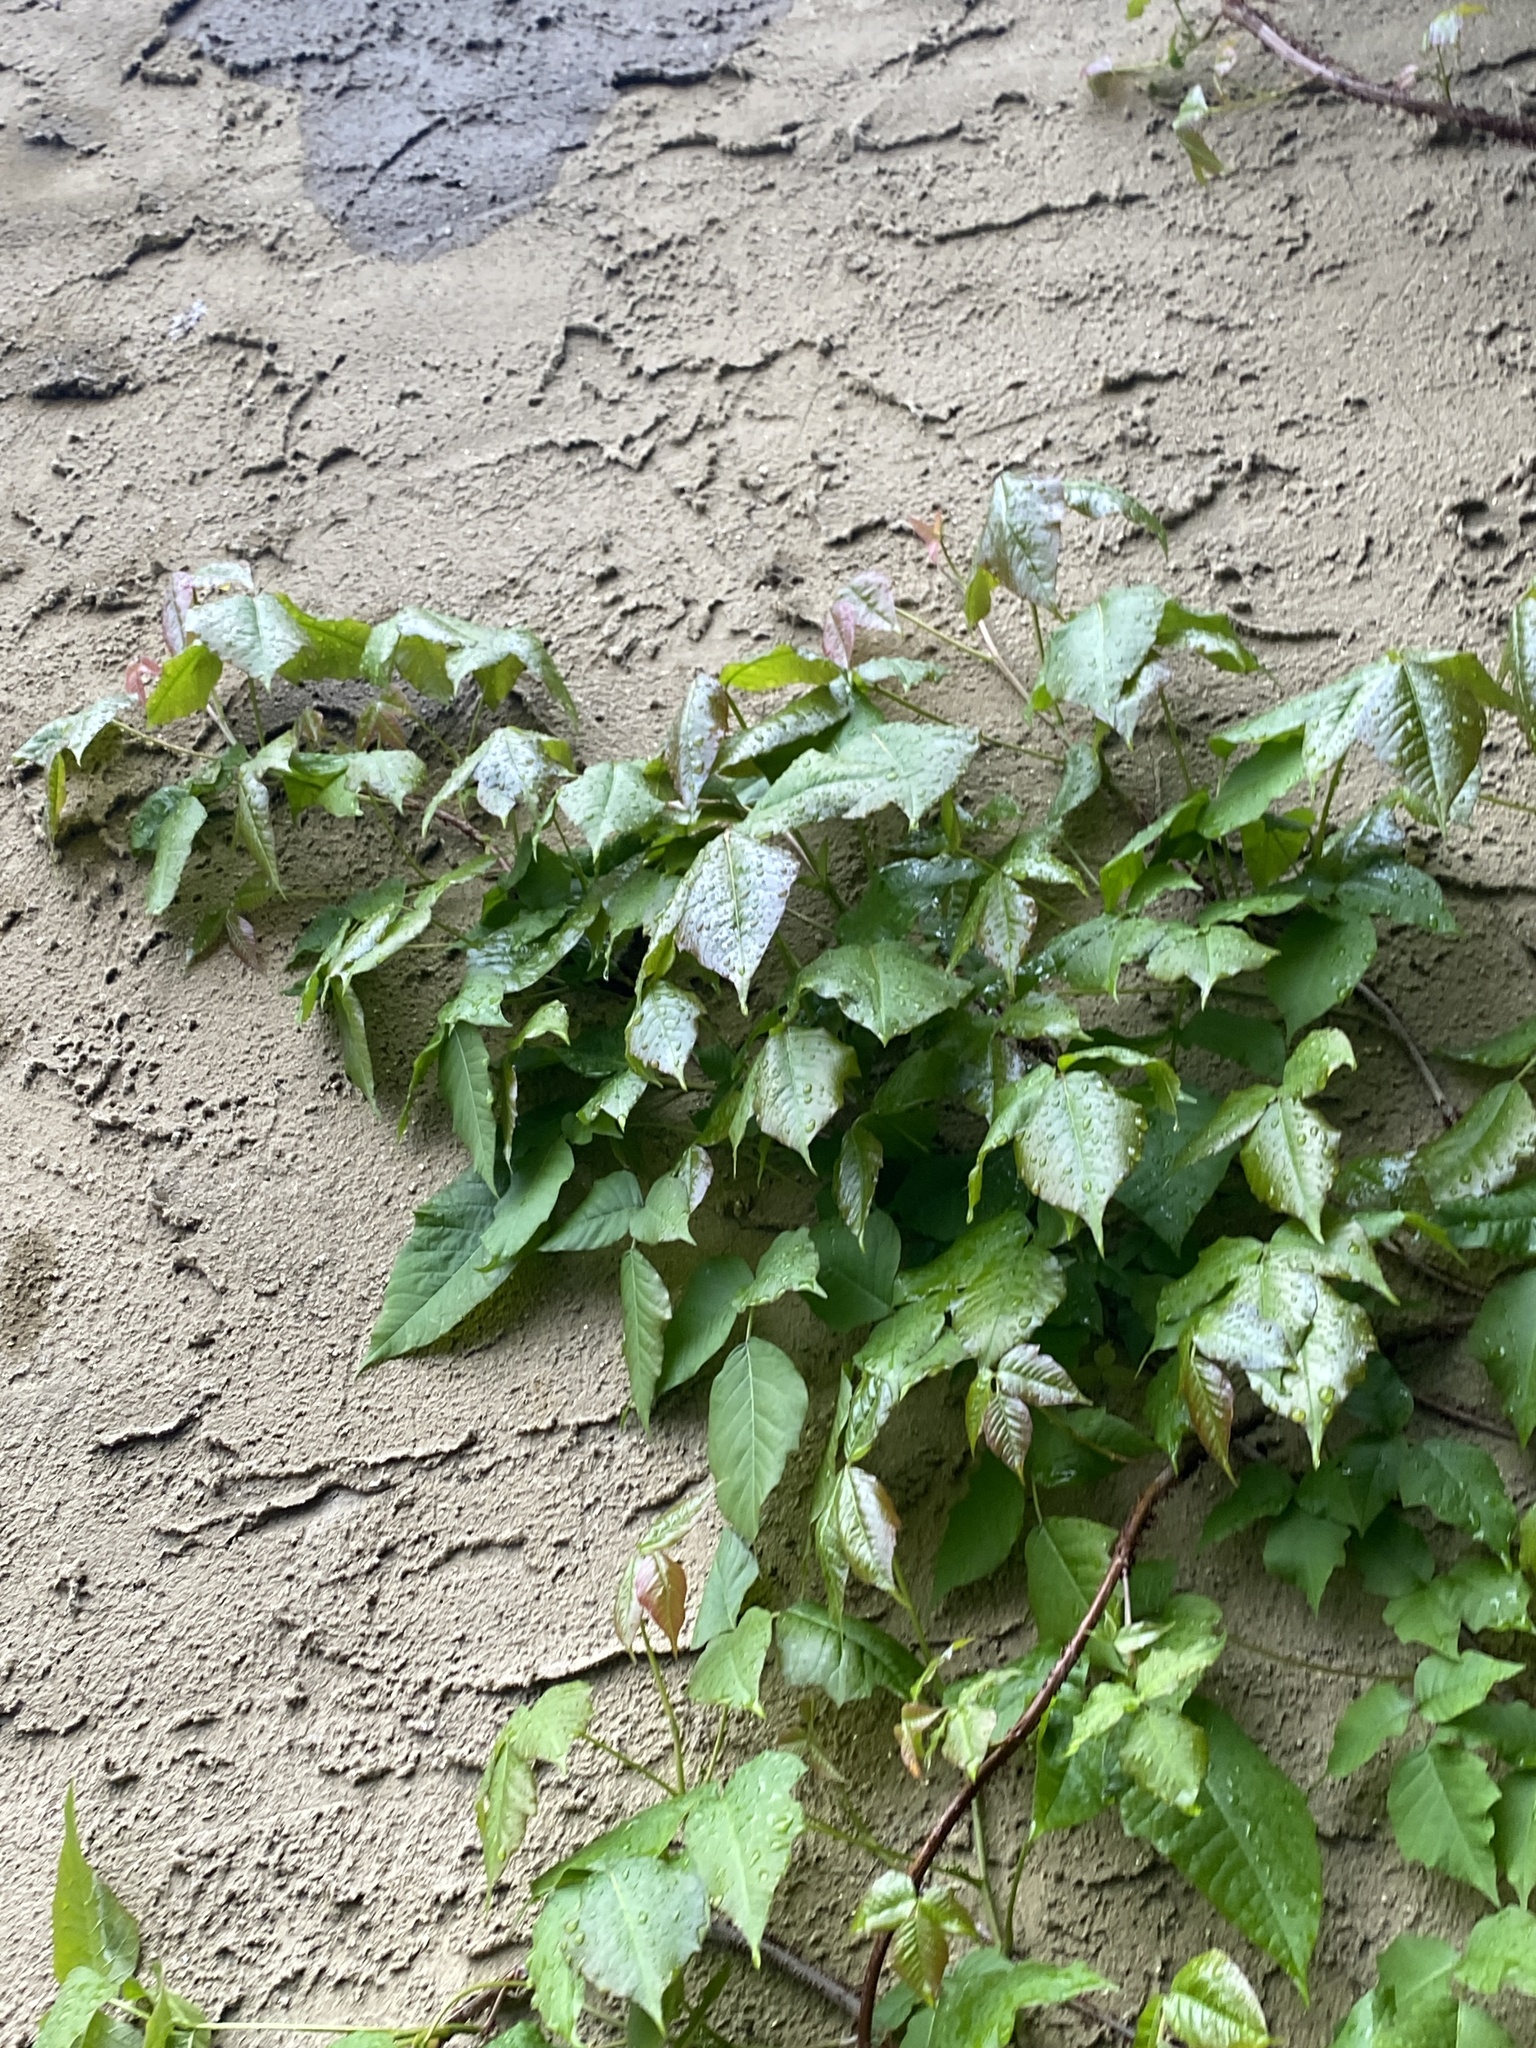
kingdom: Plantae
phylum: Tracheophyta
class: Magnoliopsida
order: Sapindales
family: Anacardiaceae
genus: Toxicodendron
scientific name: Toxicodendron radicans
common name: Poison ivy
